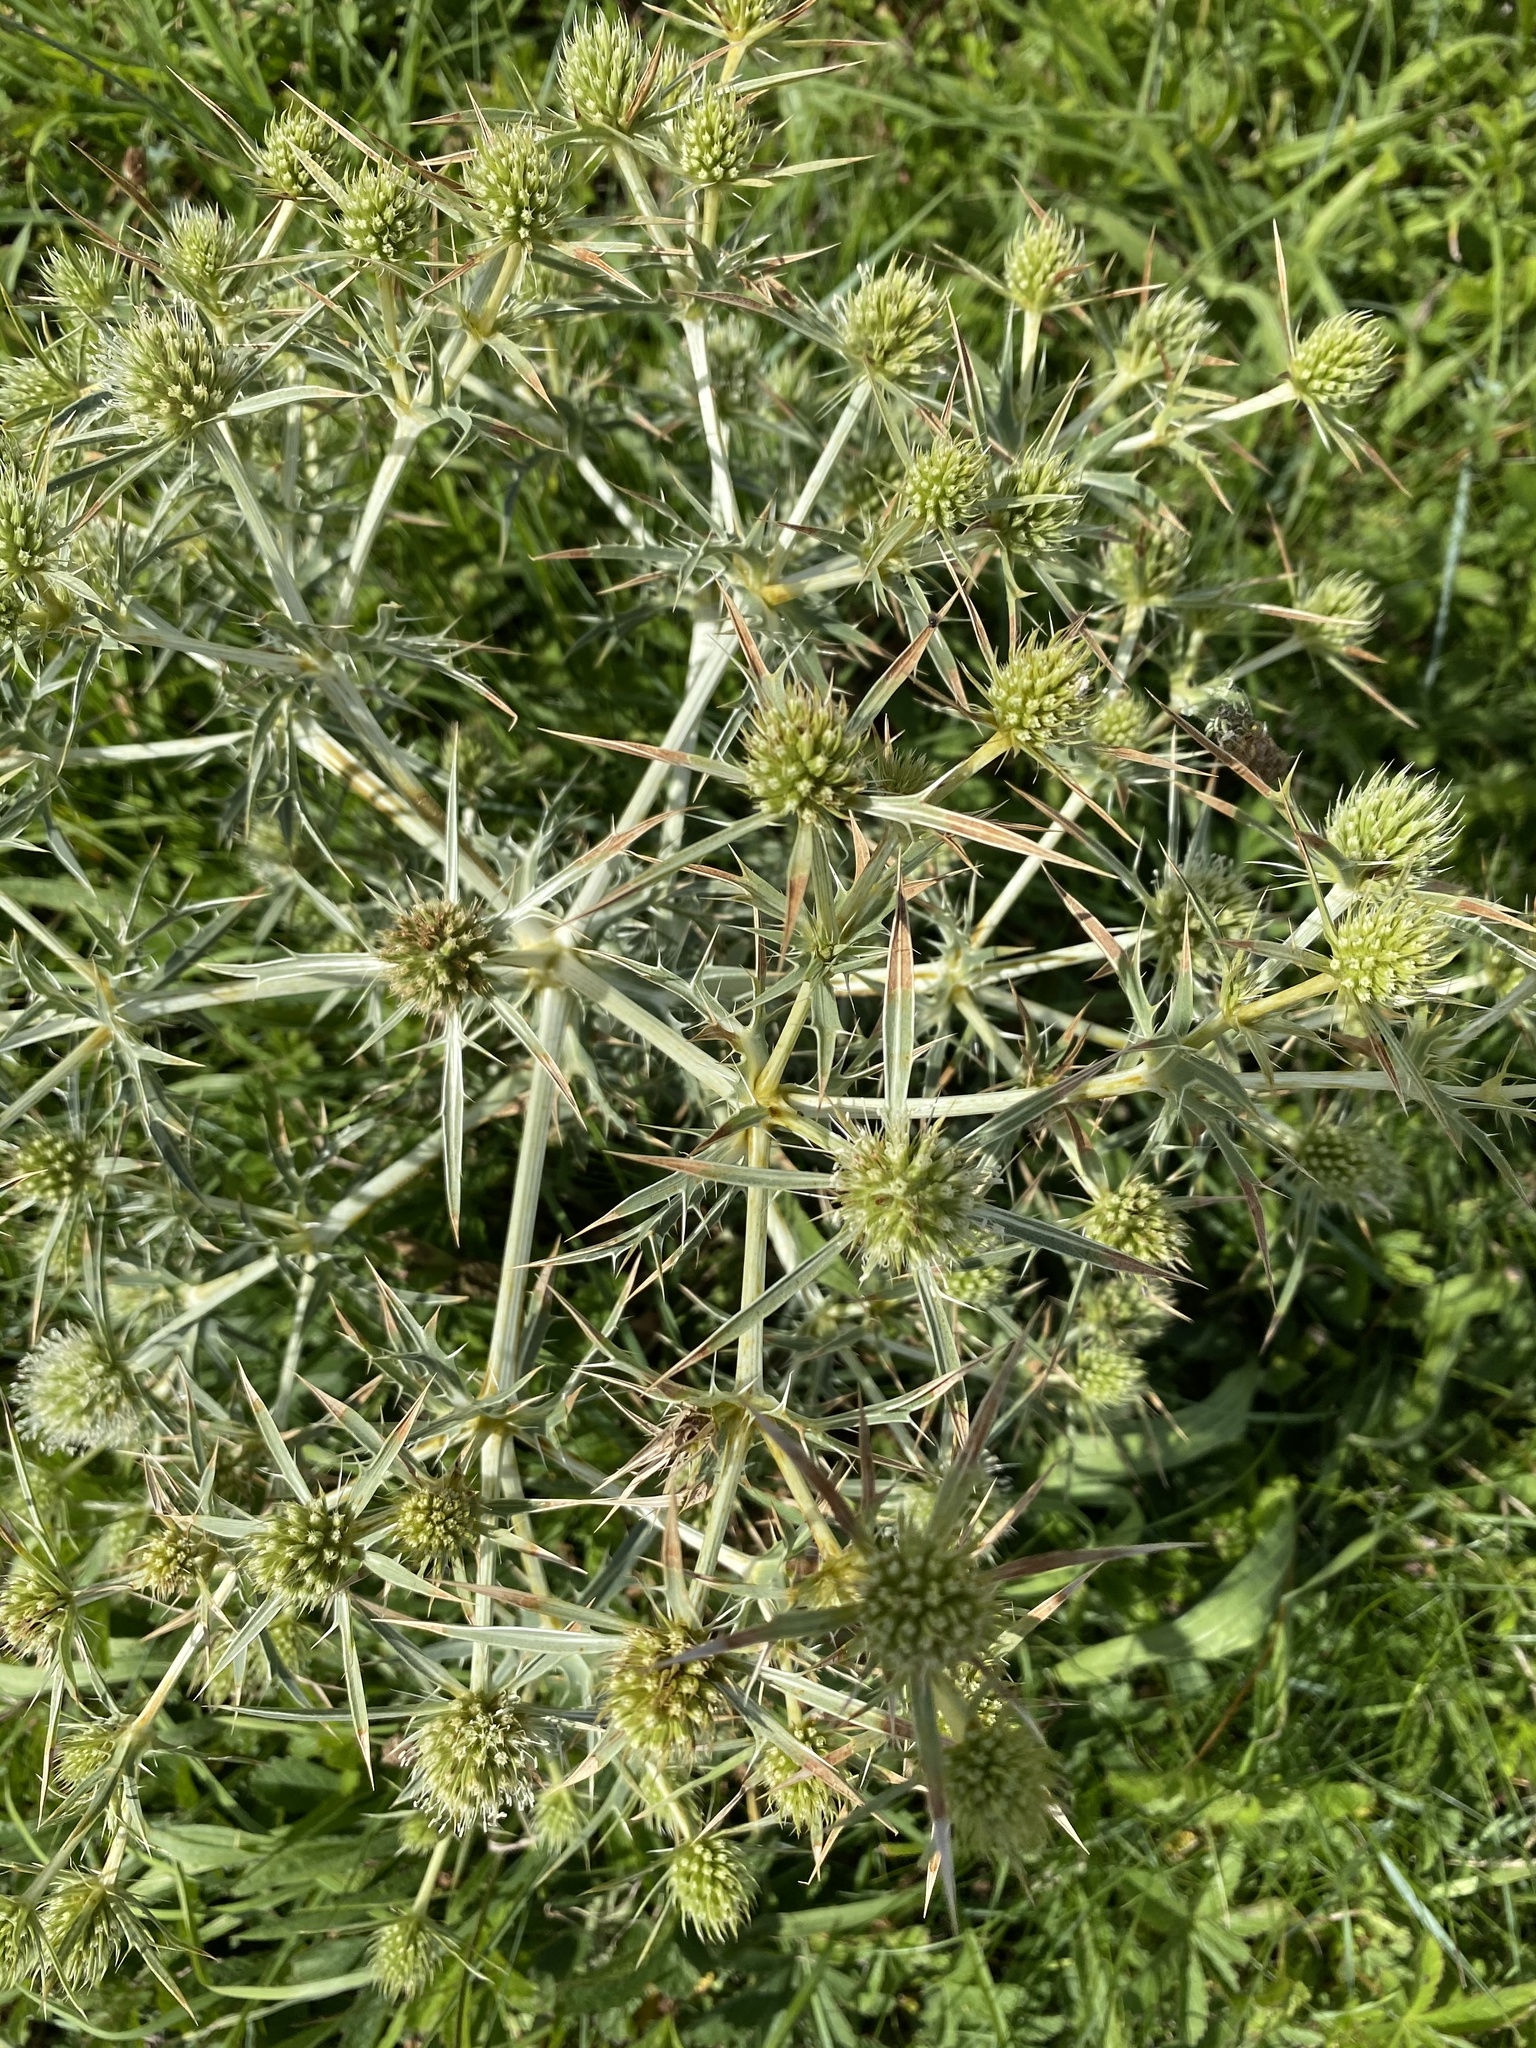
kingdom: Plantae
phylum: Tracheophyta
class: Magnoliopsida
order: Apiales
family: Apiaceae
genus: Eryngium
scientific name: Eryngium campestre
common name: Field eryngo
